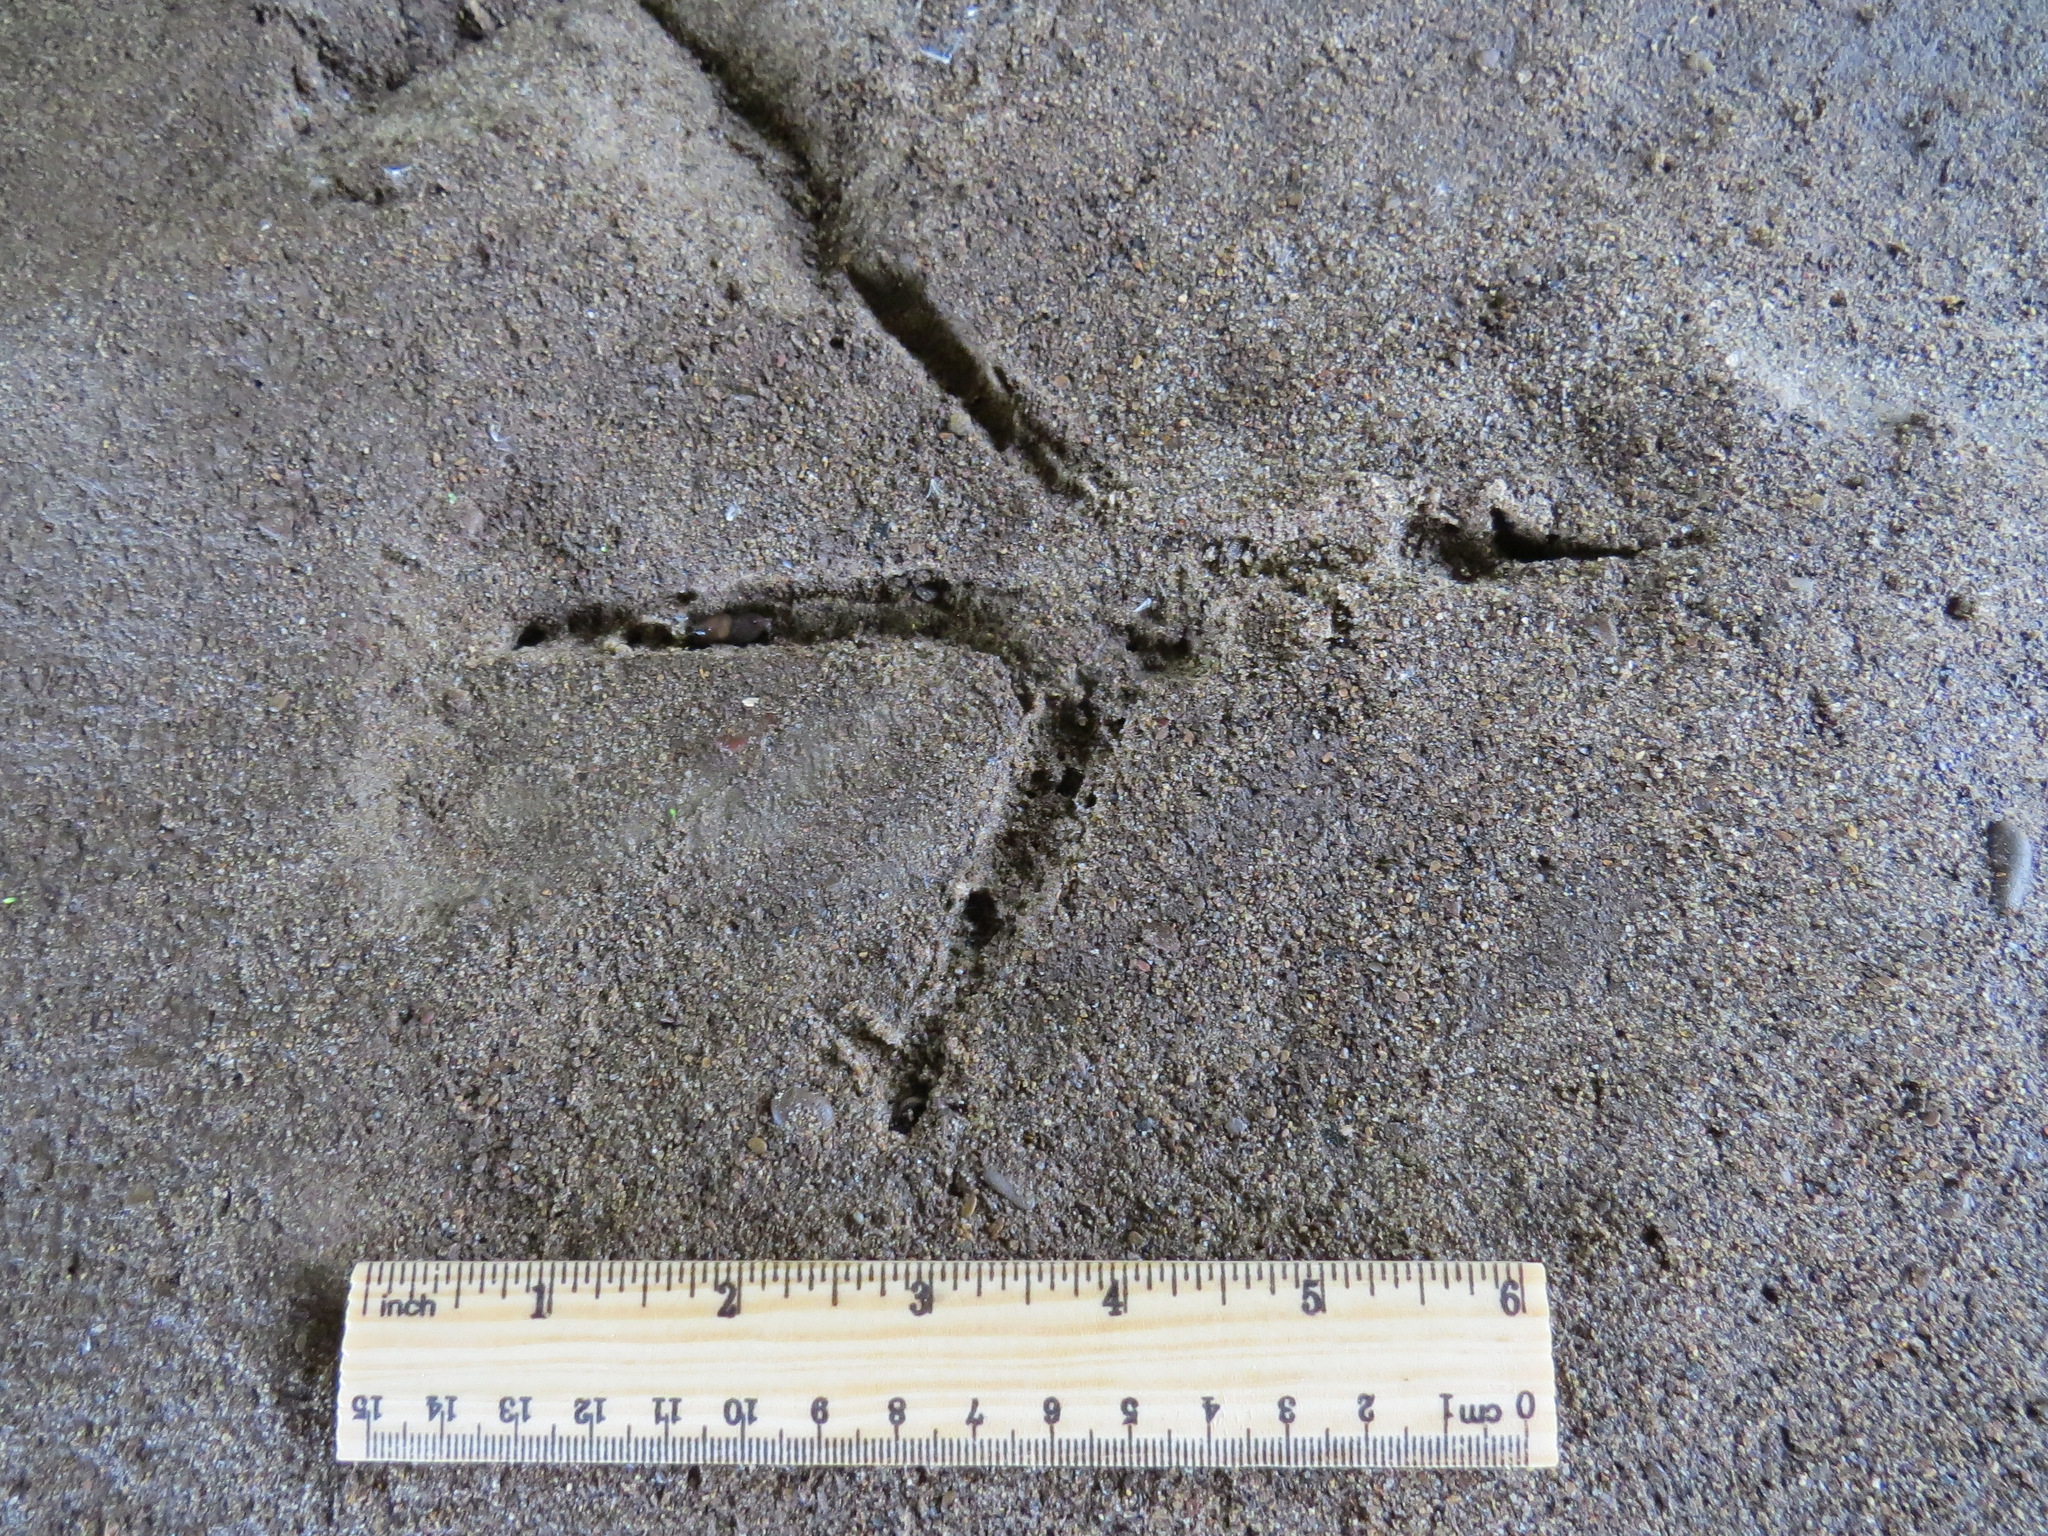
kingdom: Animalia
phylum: Chordata
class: Aves
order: Pelecaniformes
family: Ardeidae
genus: Ardea
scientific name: Ardea herodias
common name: Great blue heron
